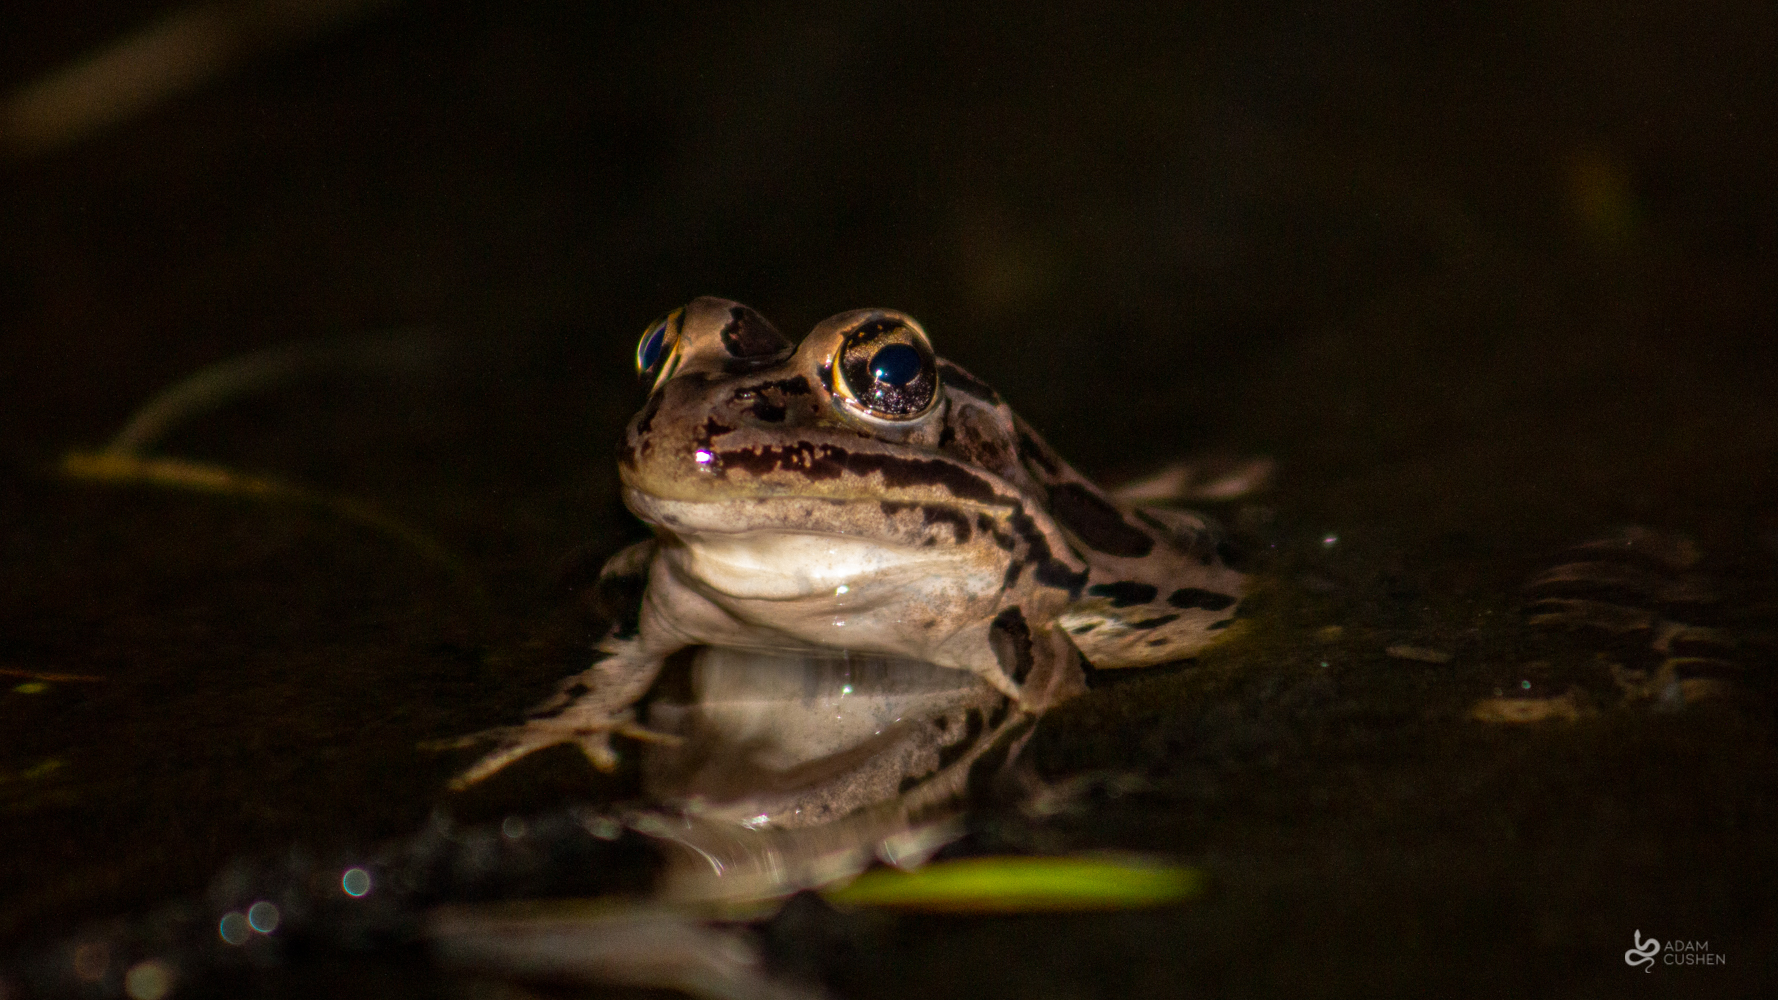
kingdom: Animalia
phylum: Chordata
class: Amphibia
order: Anura
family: Ranidae
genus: Lithobates
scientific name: Lithobates pipiens
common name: Northern leopard frog
